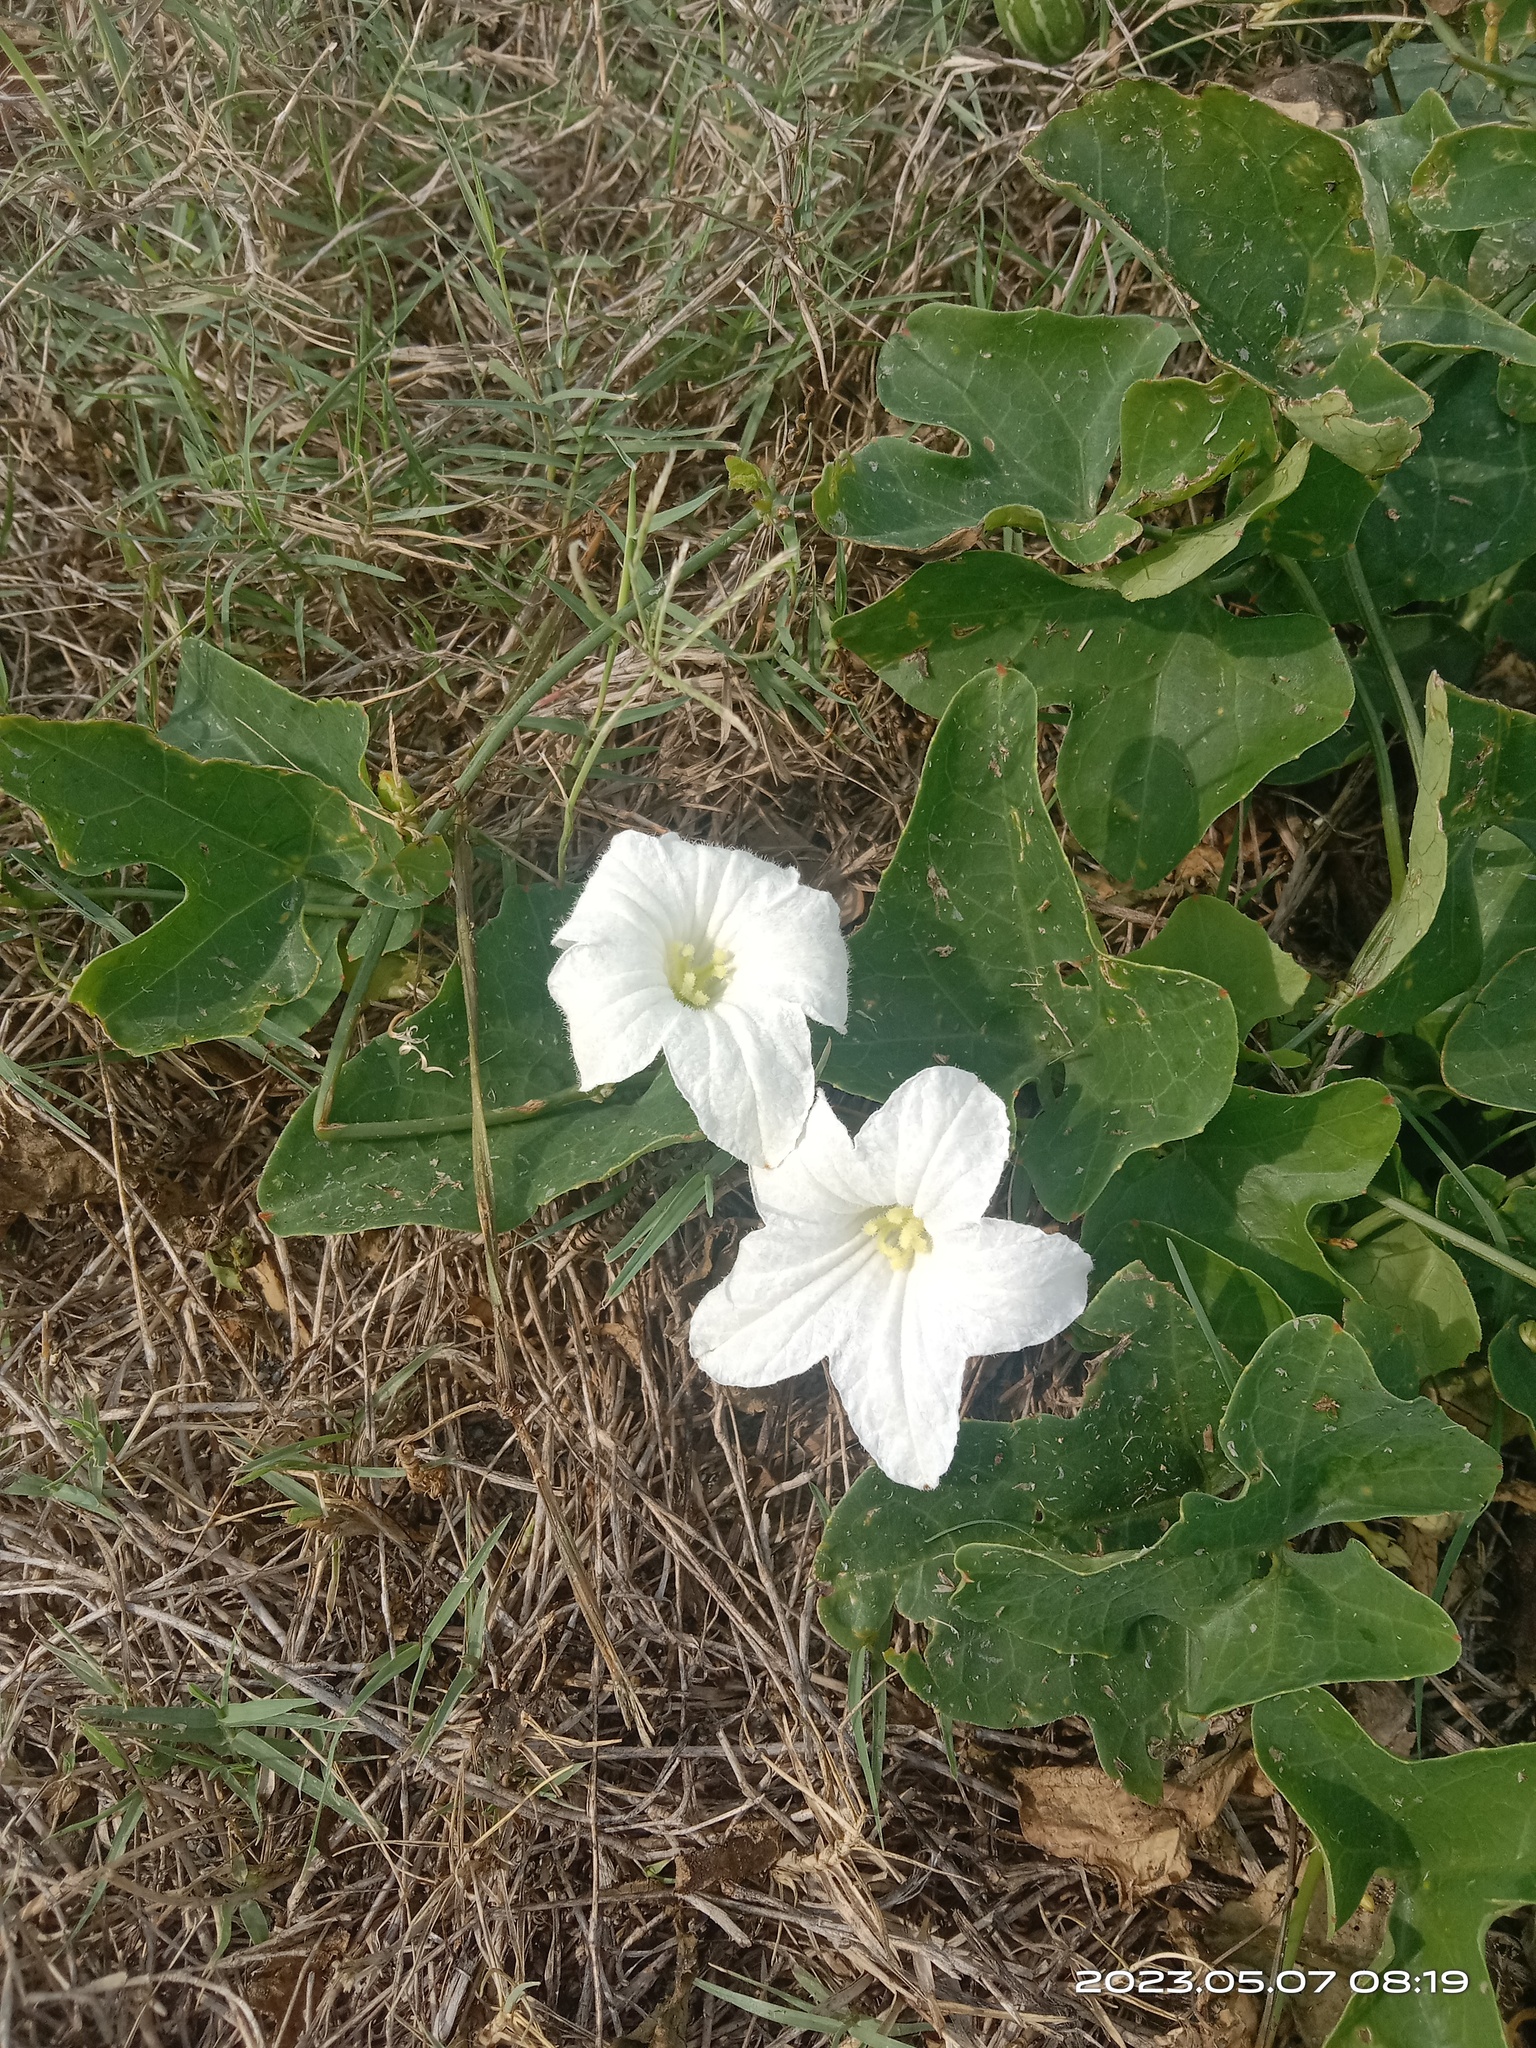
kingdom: Plantae
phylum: Tracheophyta
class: Magnoliopsida
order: Cucurbitales
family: Cucurbitaceae
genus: Coccinia
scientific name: Coccinia grandis
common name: Ivy gourd
